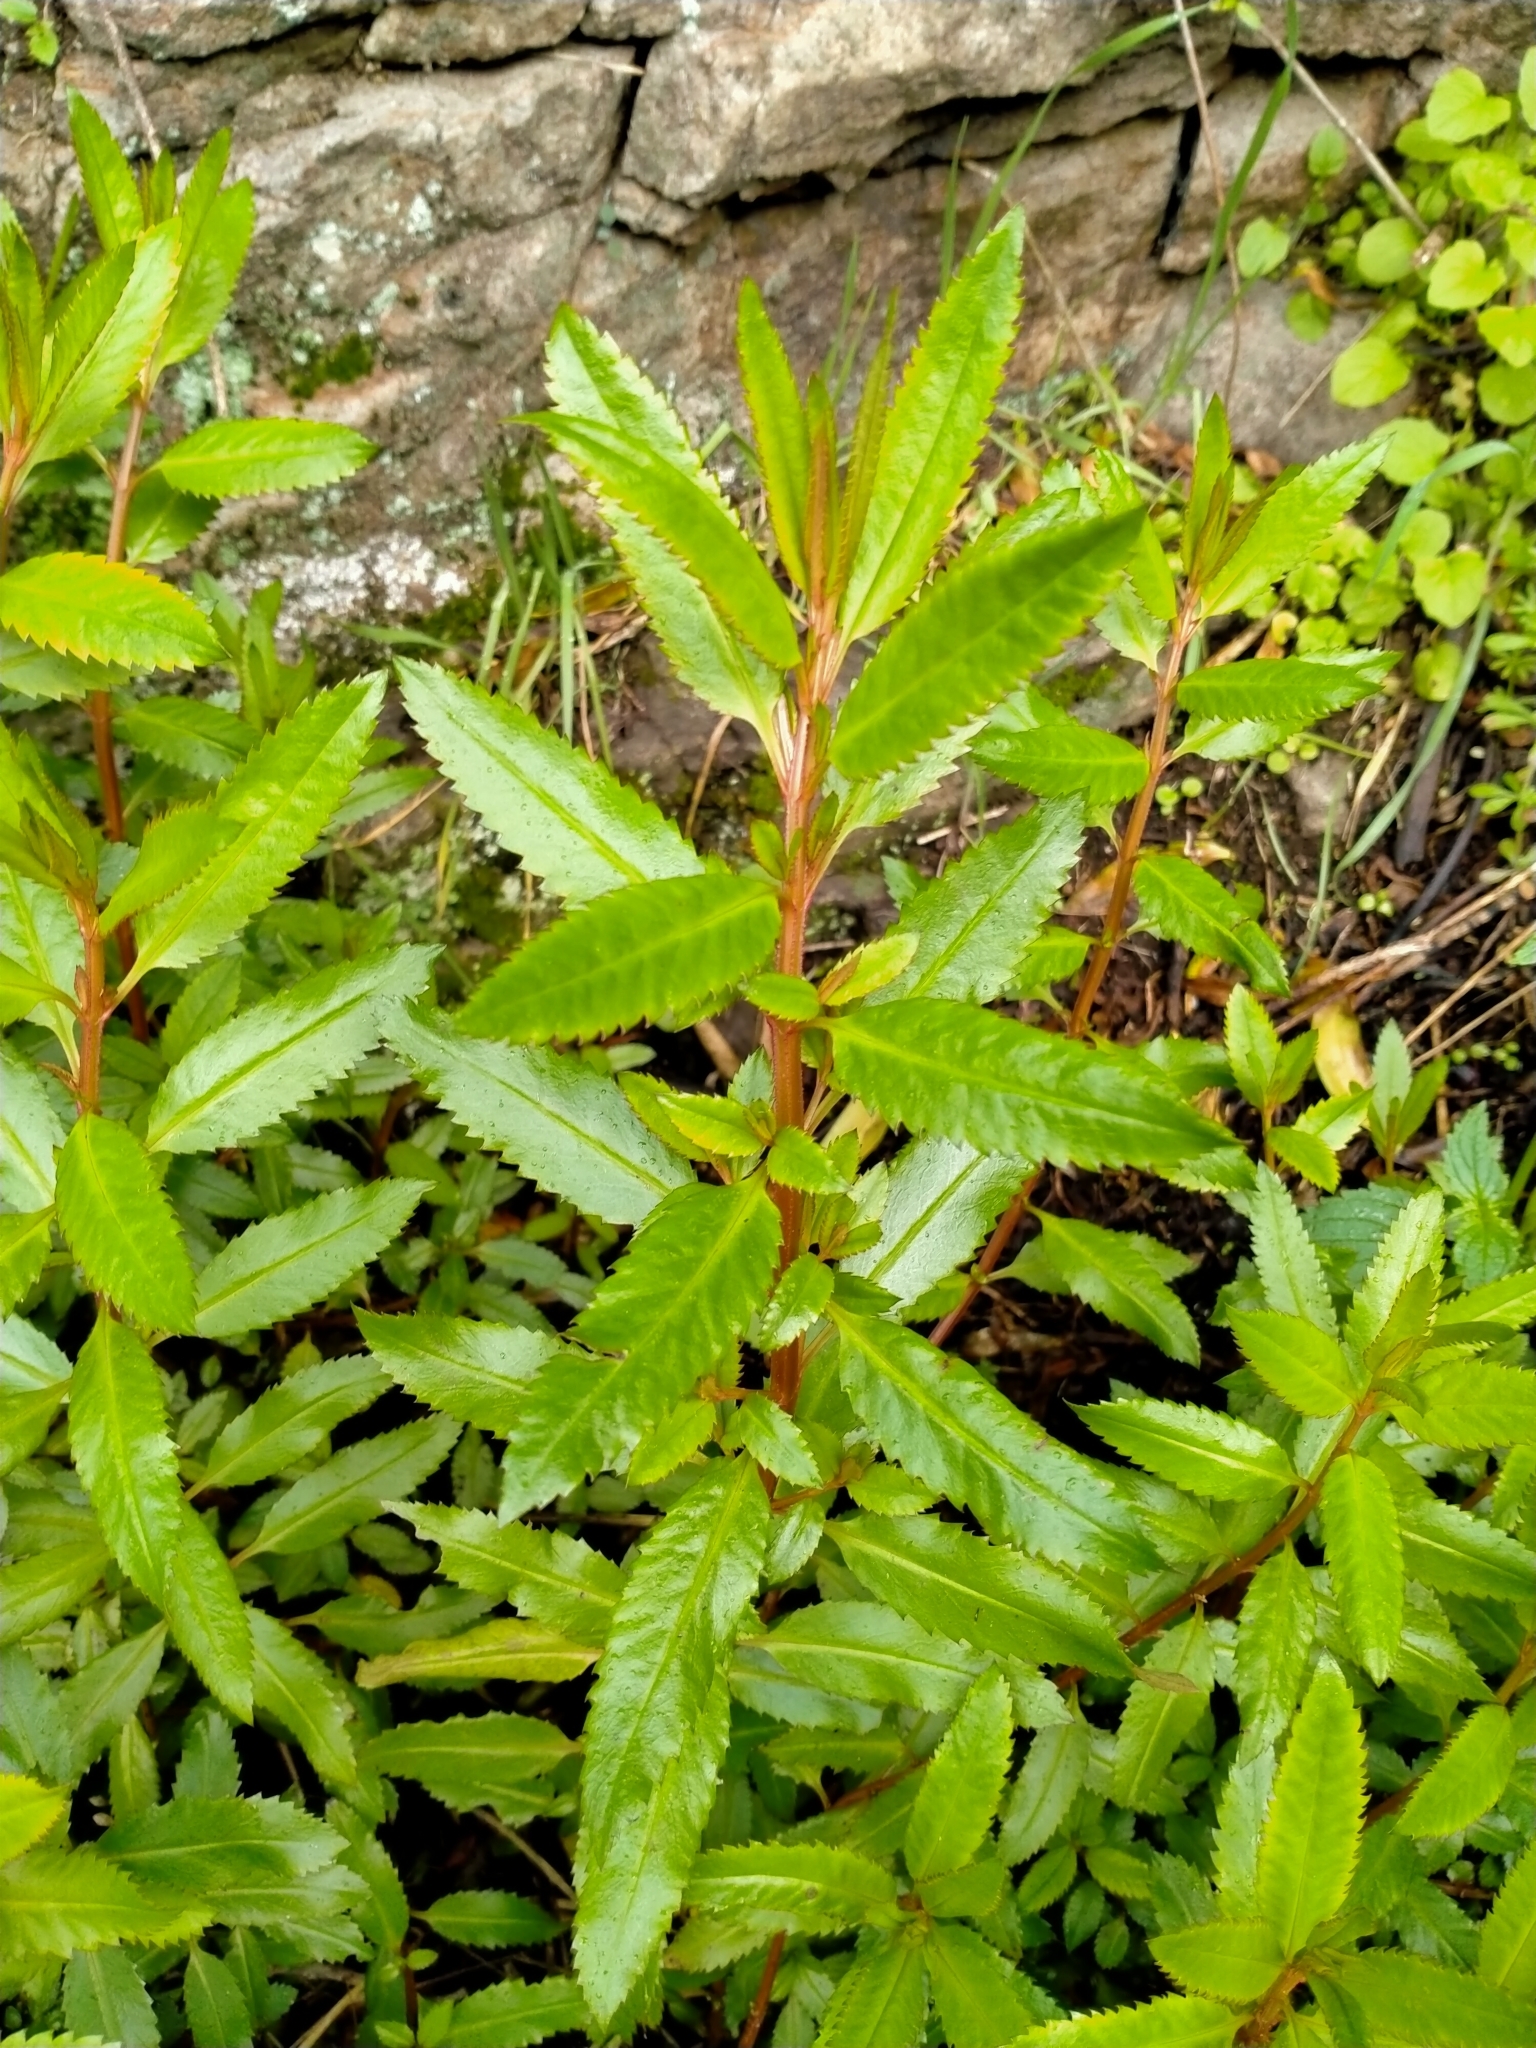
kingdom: Plantae
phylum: Tracheophyta
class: Magnoliopsida
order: Saxifragales
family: Haloragaceae
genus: Haloragis
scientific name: Haloragis erecta
